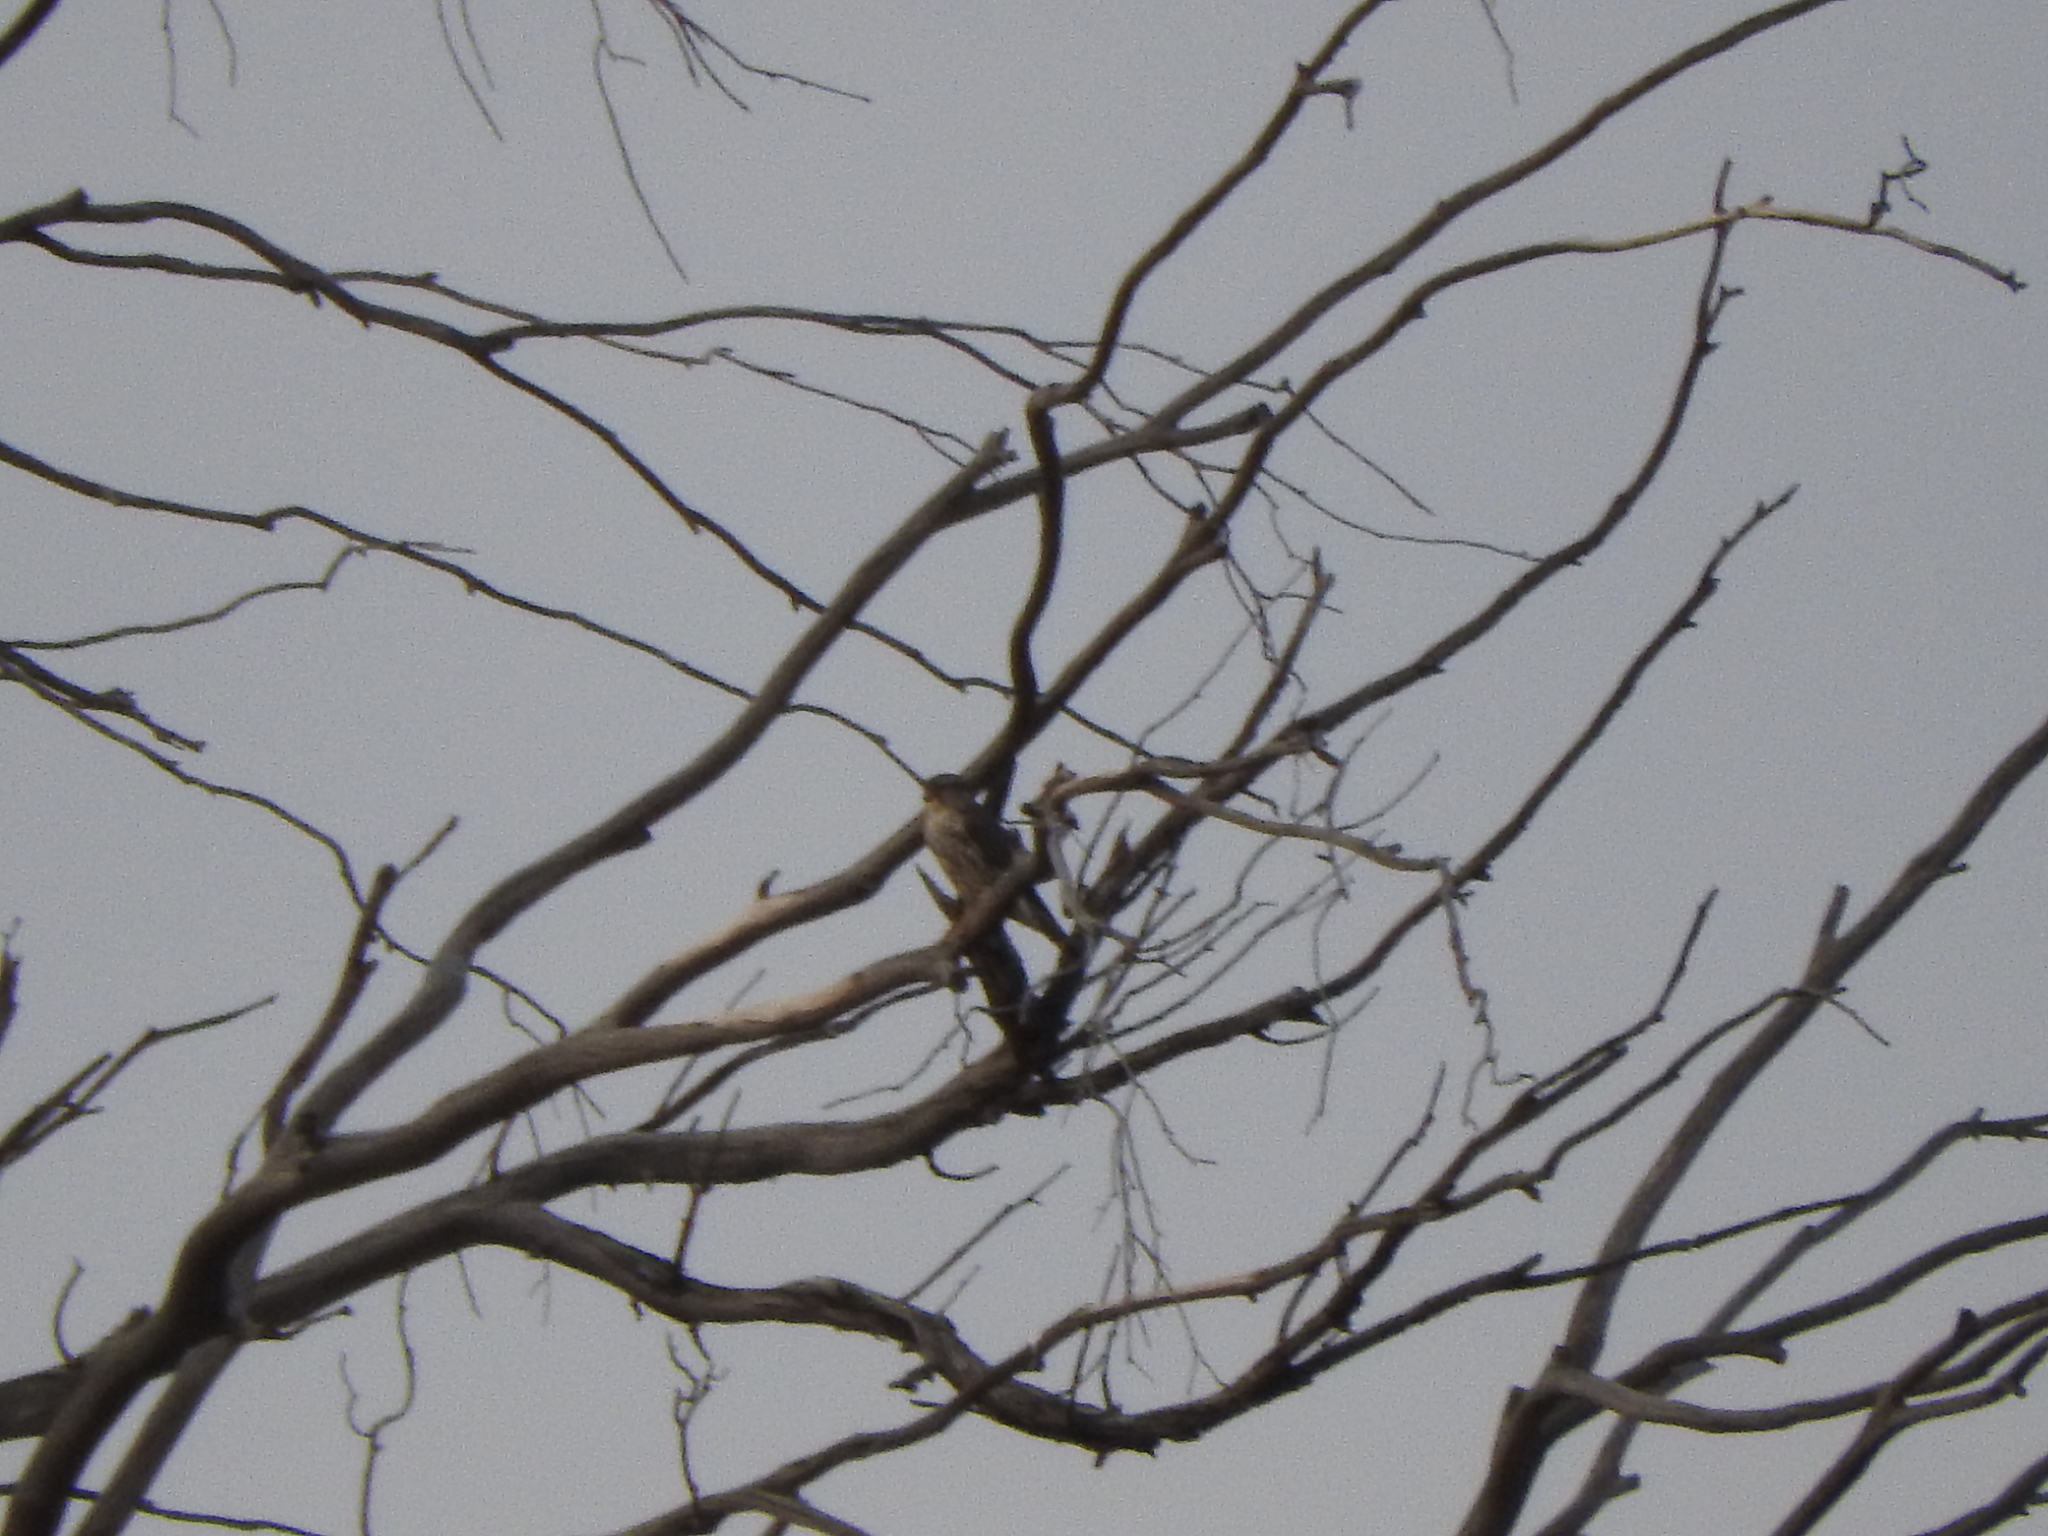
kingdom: Animalia
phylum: Chordata
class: Aves
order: Falconiformes
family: Falconidae
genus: Falco
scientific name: Falco columbarius
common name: Merlin
